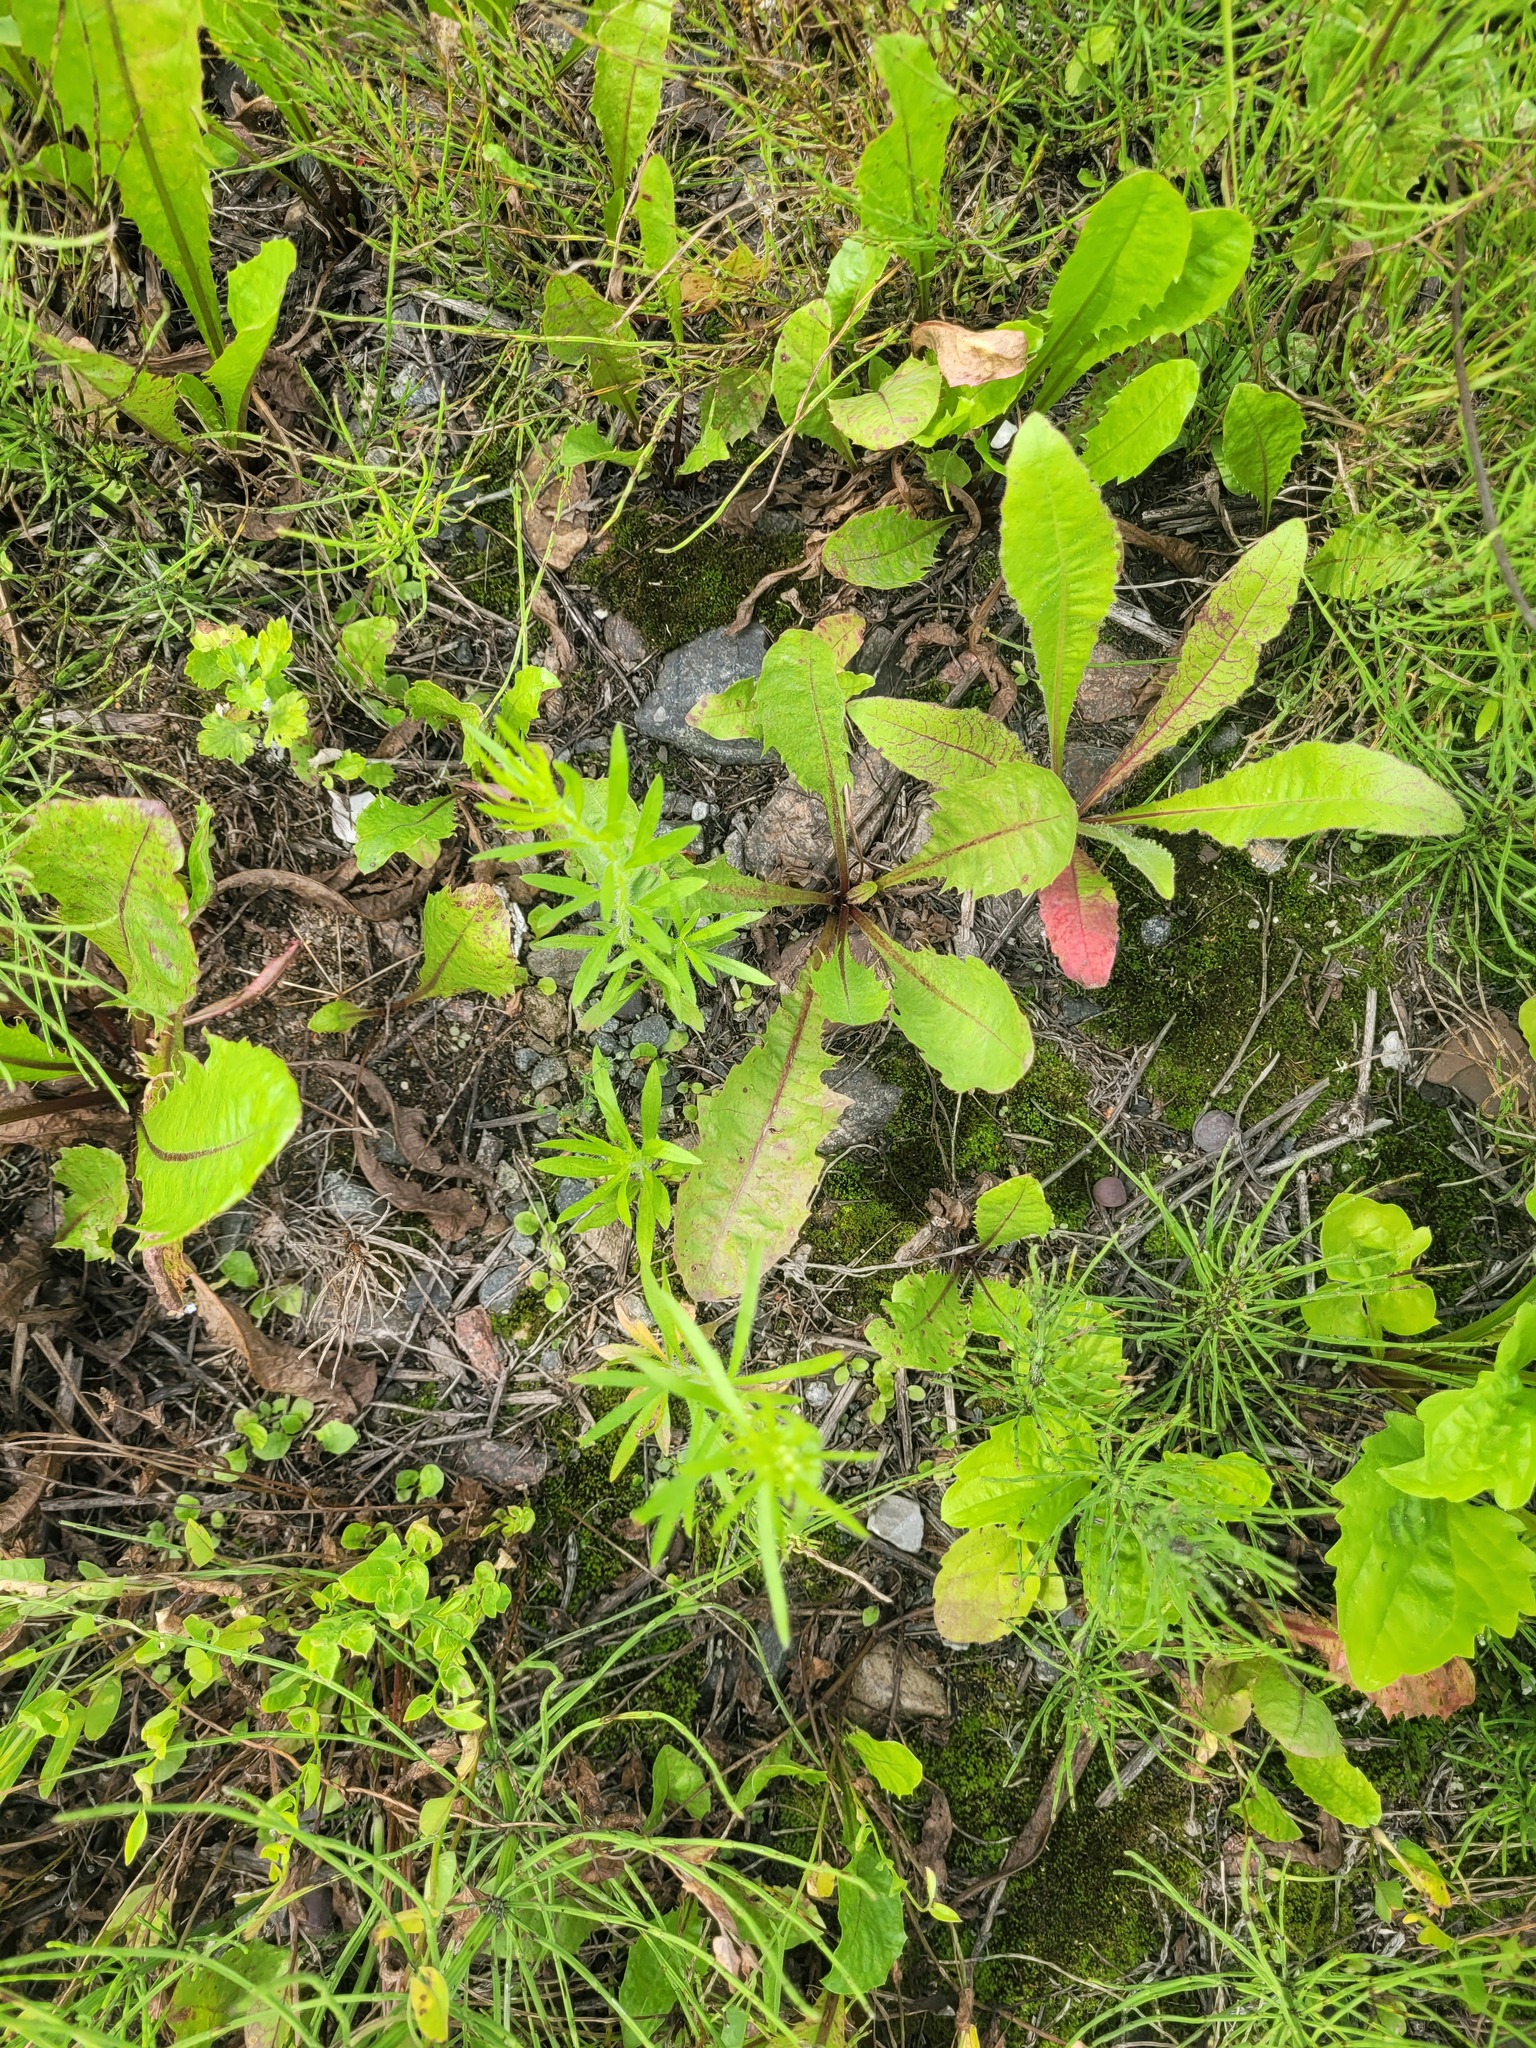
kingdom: Plantae
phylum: Tracheophyta
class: Magnoliopsida
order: Asterales
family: Asteraceae
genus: Taraxacum
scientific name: Taraxacum officinale
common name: Common dandelion
